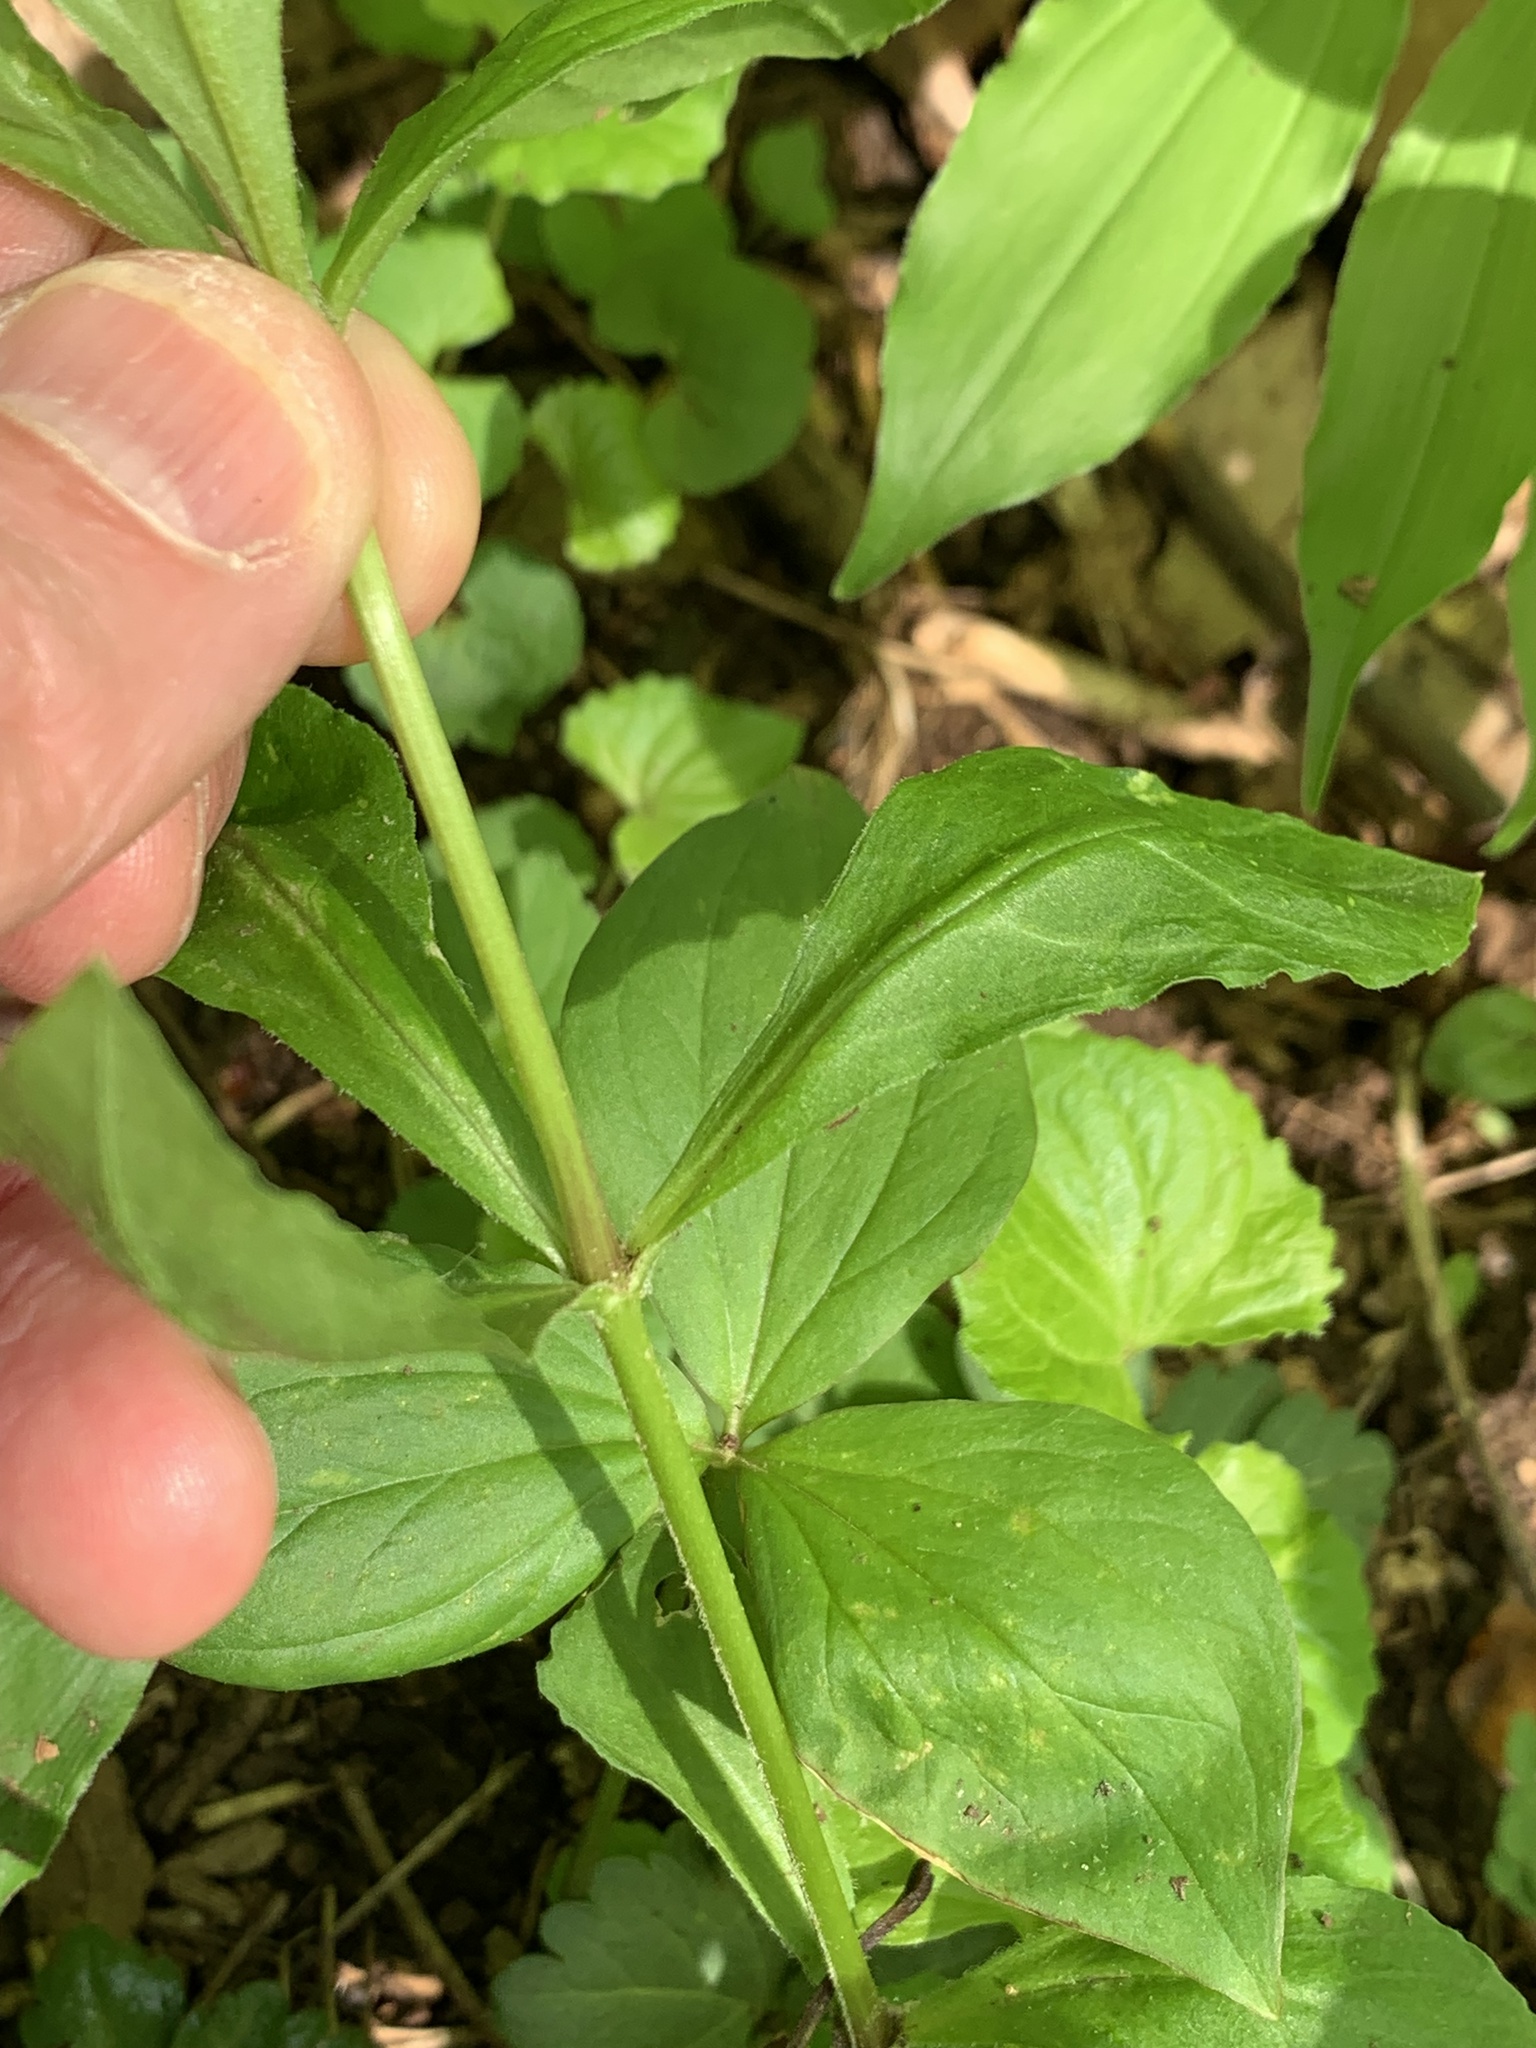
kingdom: Plantae
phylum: Tracheophyta
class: Magnoliopsida
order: Caryophyllales
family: Caryophyllaceae
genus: Silene
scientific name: Silene stellata
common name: Starry campion
